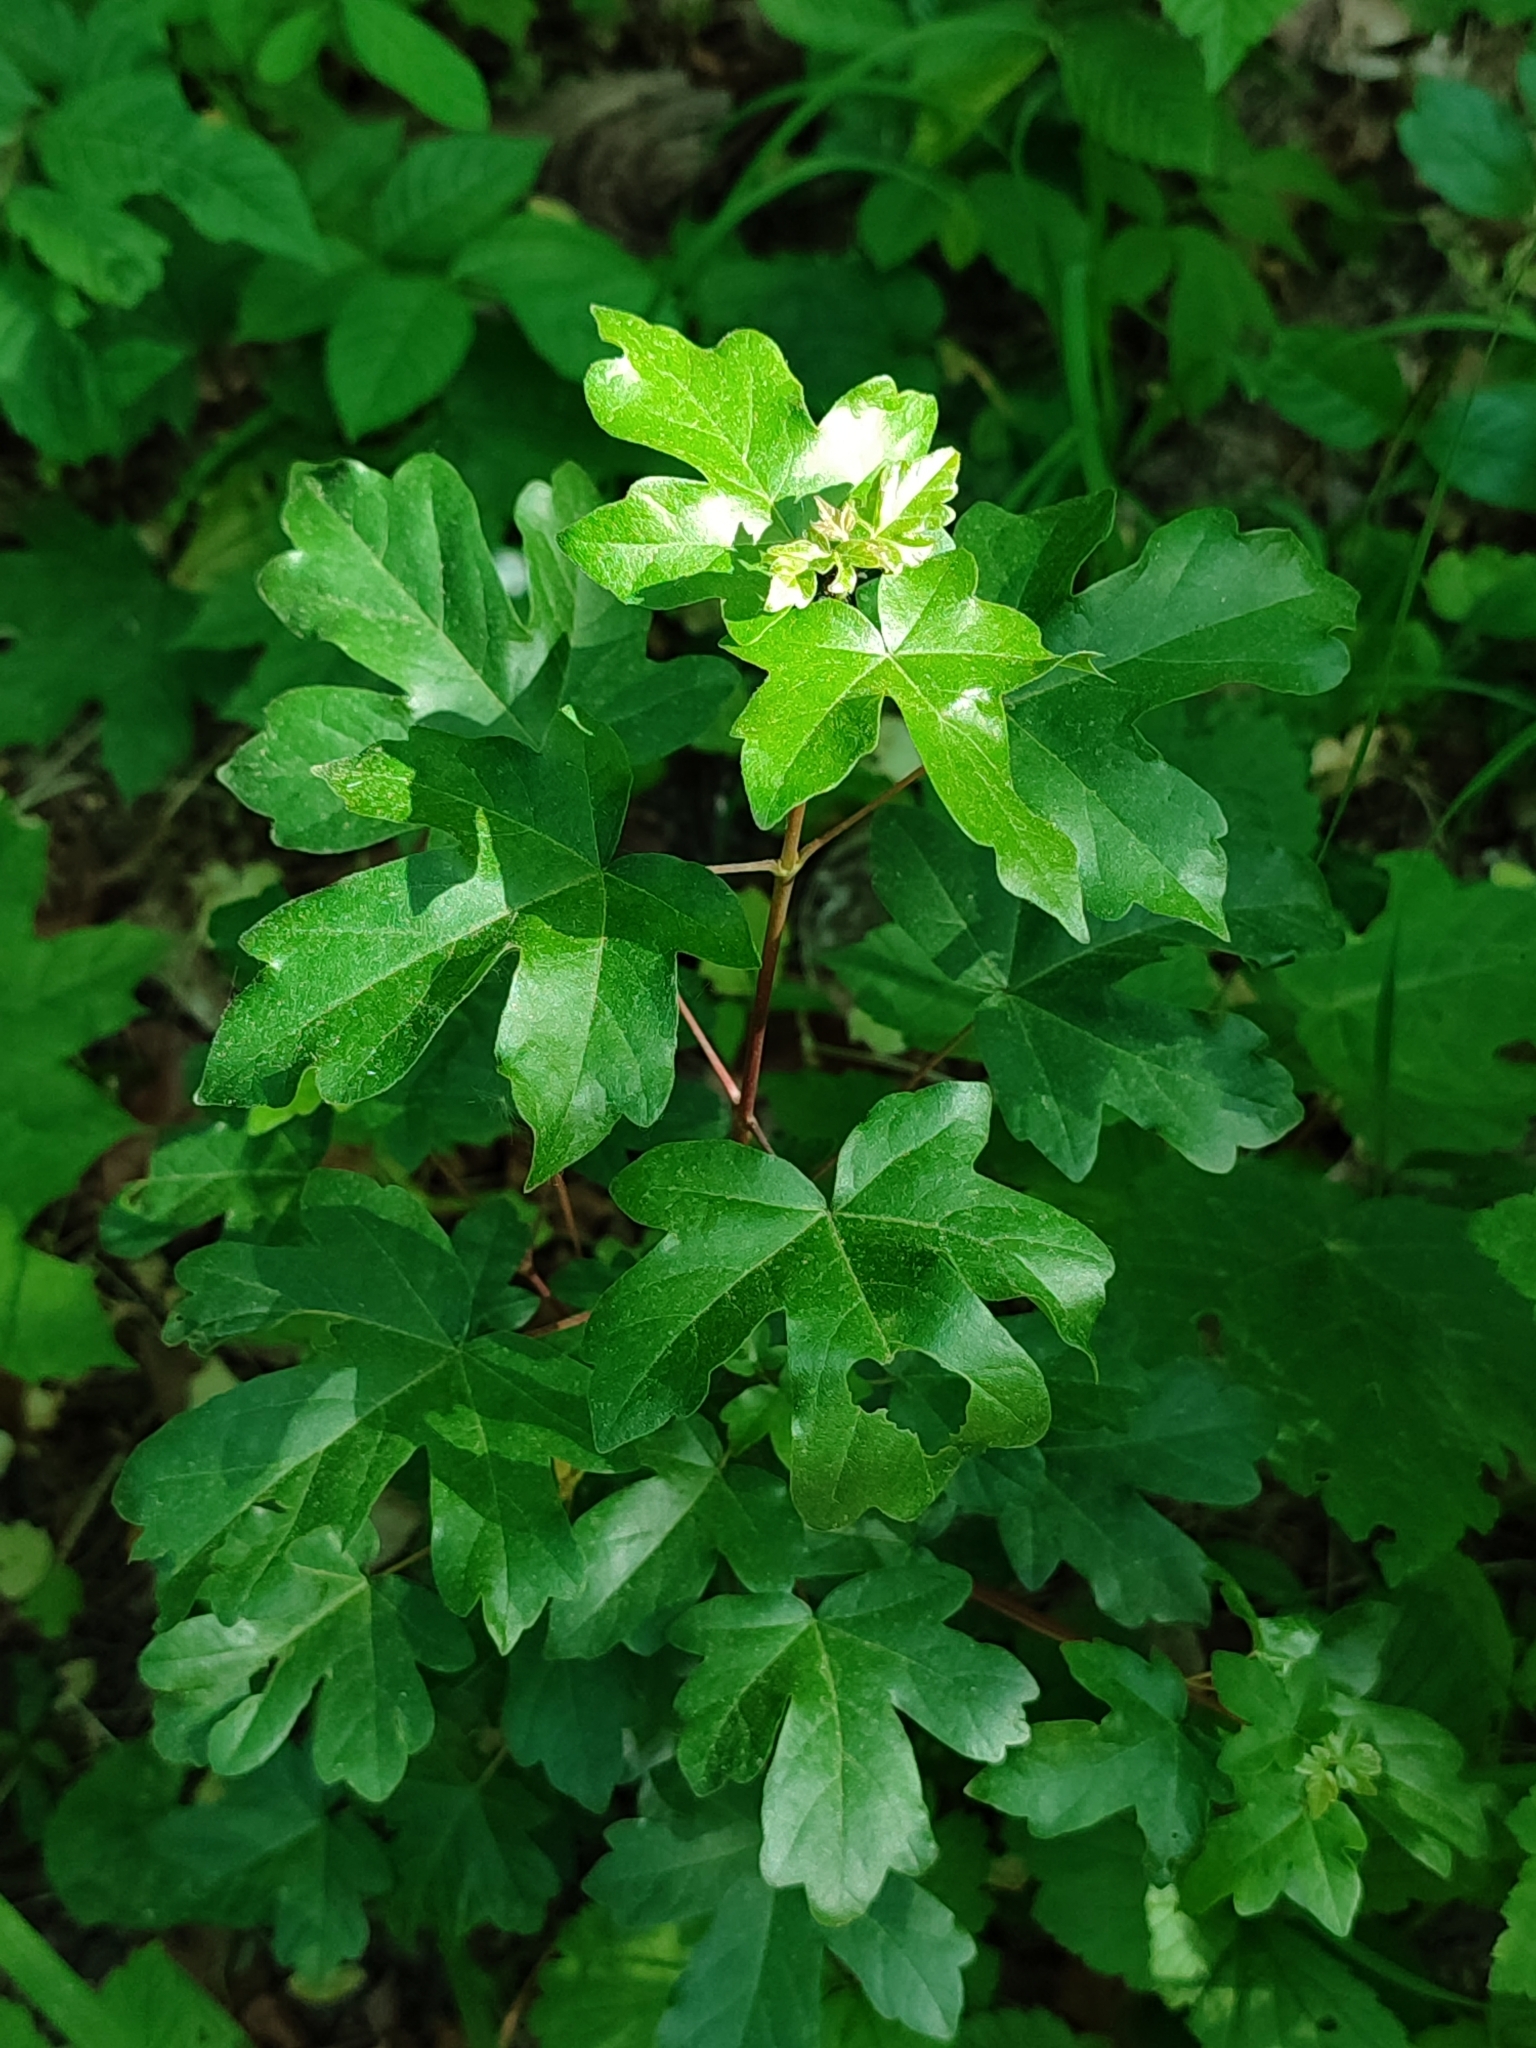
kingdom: Plantae
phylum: Tracheophyta
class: Magnoliopsida
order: Sapindales
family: Sapindaceae
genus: Acer
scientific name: Acer campestre
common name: Field maple
